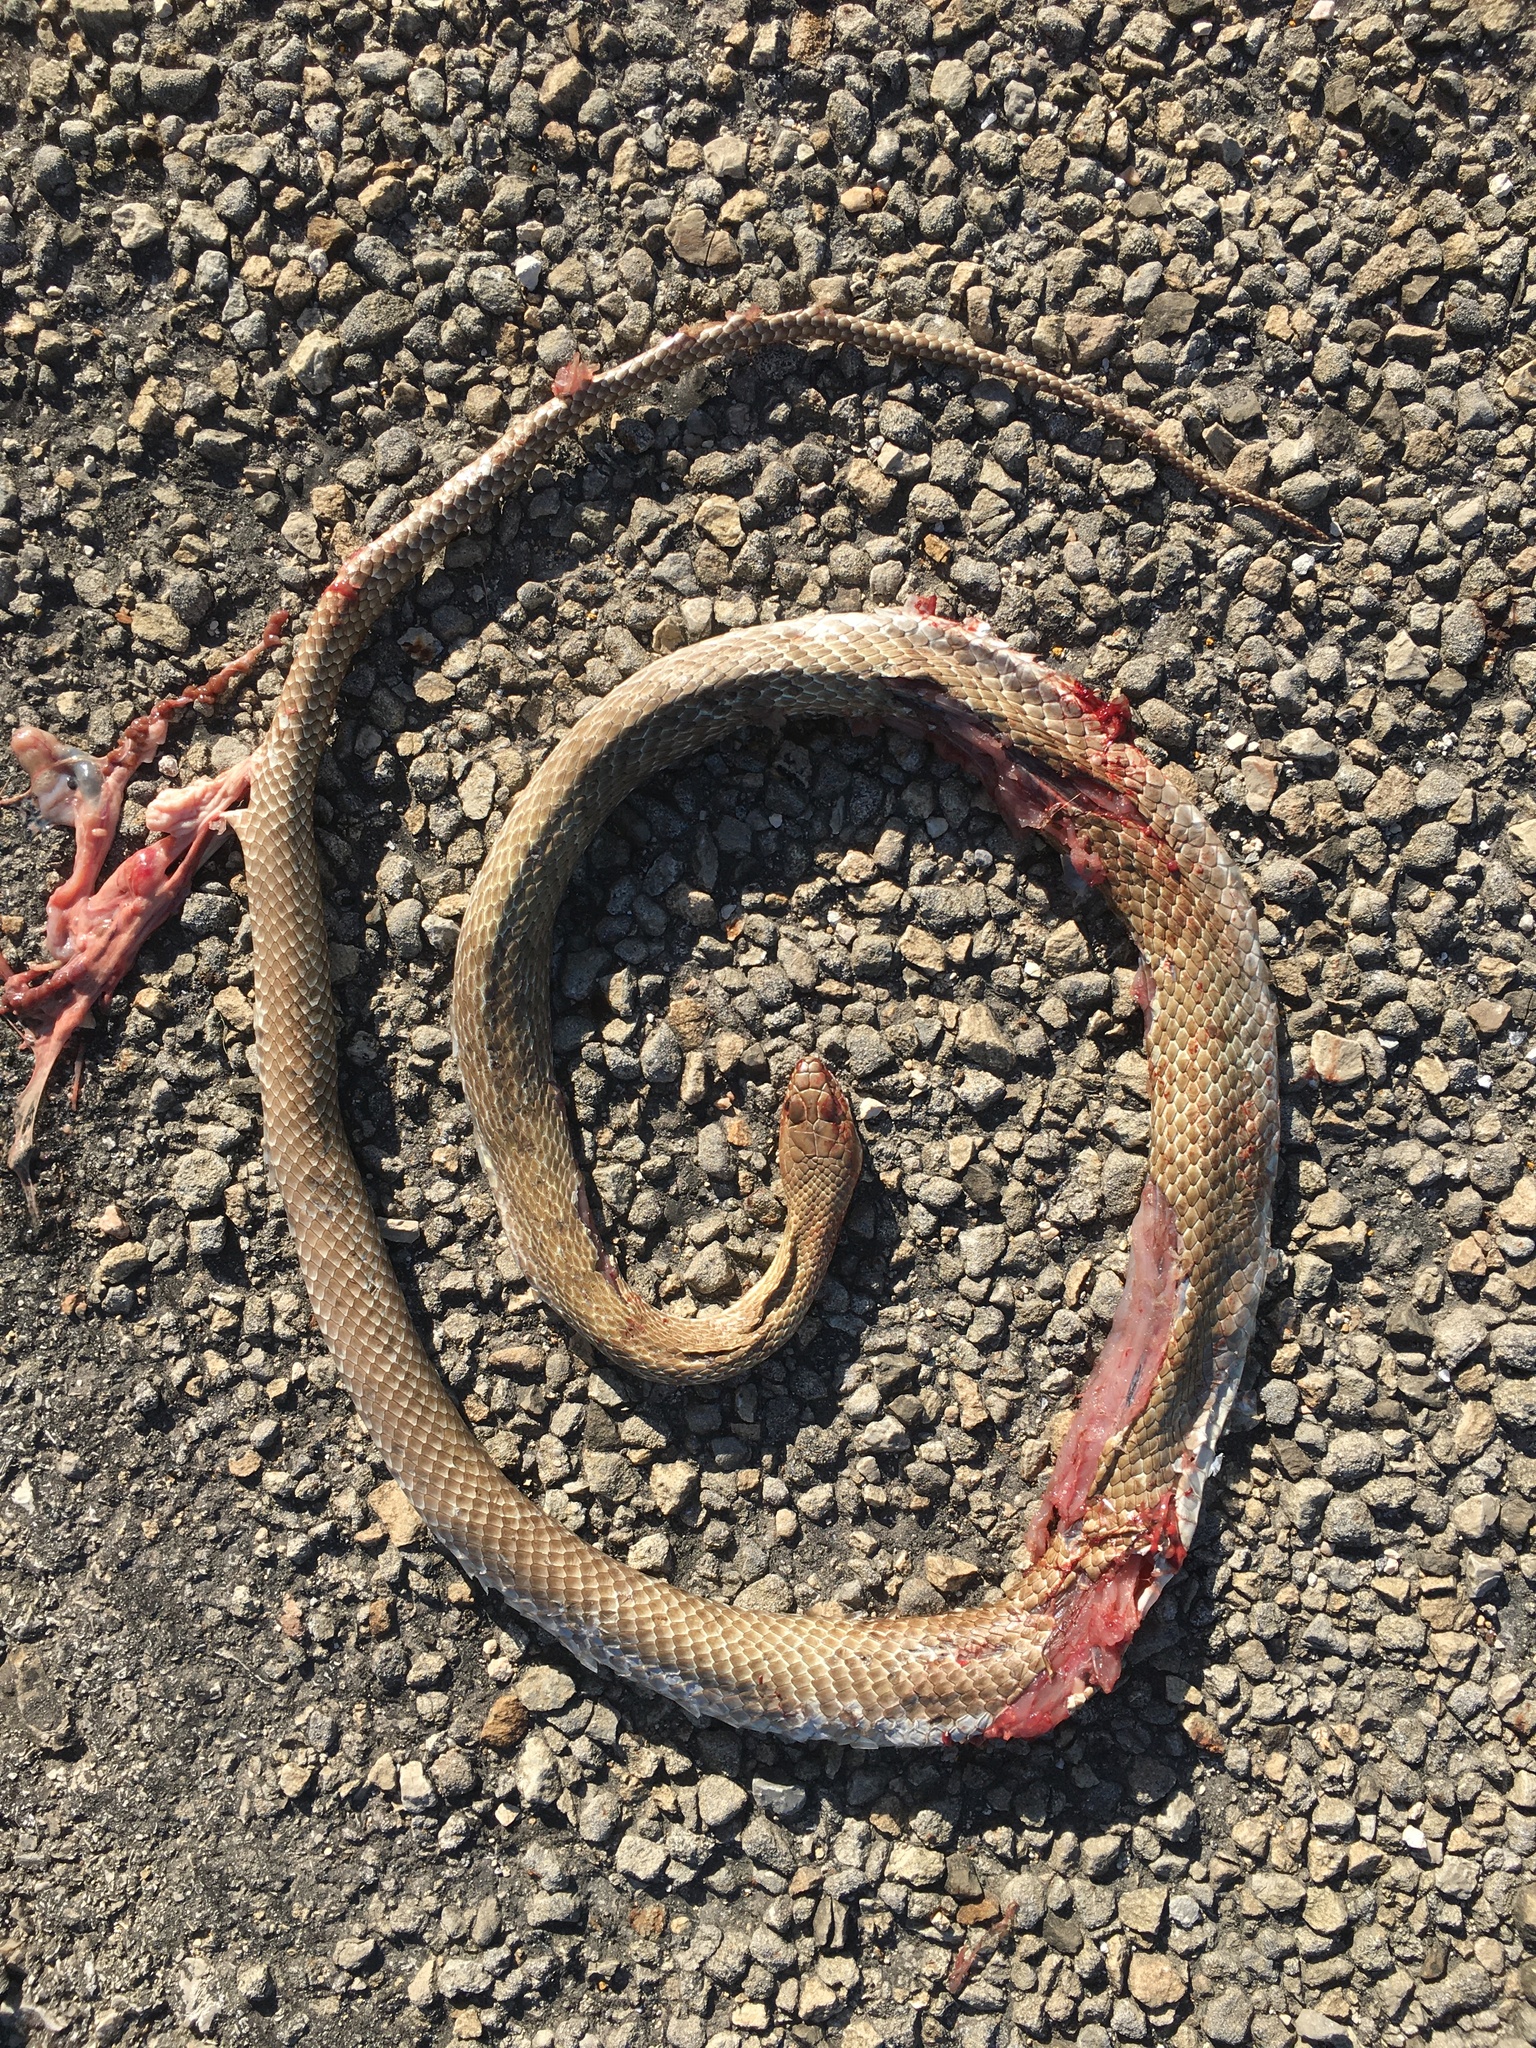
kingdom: Animalia
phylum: Chordata
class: Squamata
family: Colubridae
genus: Masticophis
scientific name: Masticophis flagellum
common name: Coachwhip
